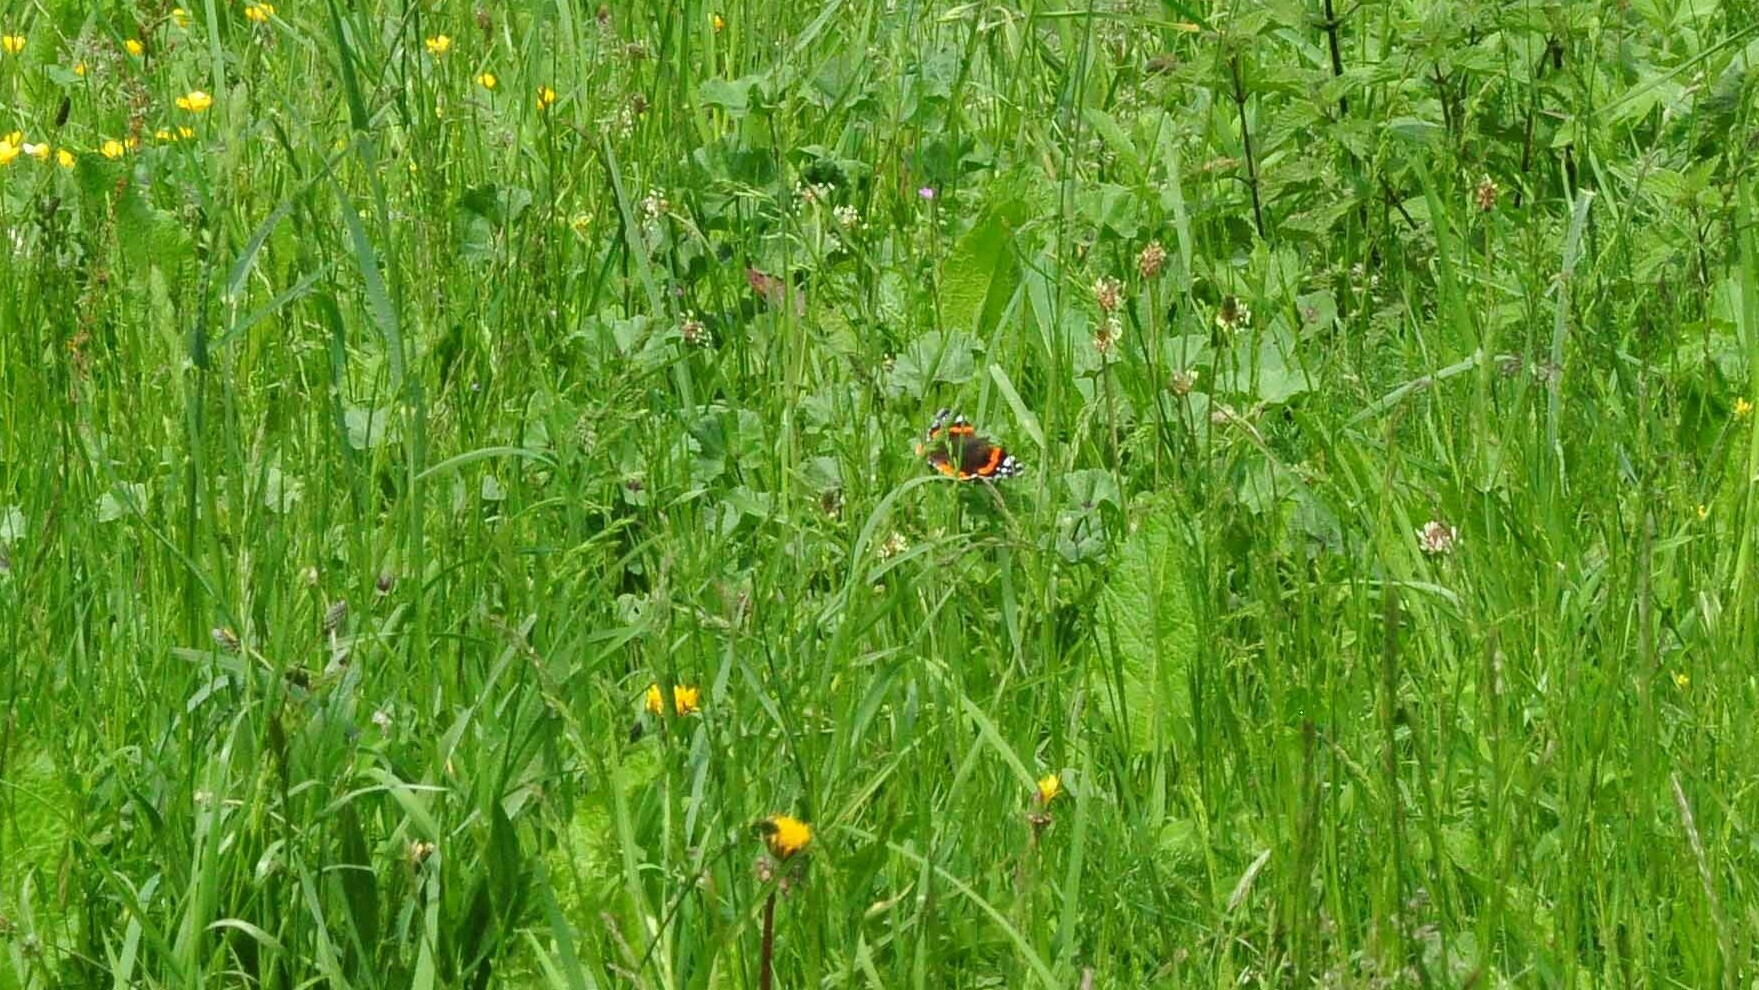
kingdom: Animalia
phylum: Arthropoda
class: Insecta
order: Lepidoptera
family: Nymphalidae
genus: Vanessa
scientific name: Vanessa atalanta
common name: Red admiral
